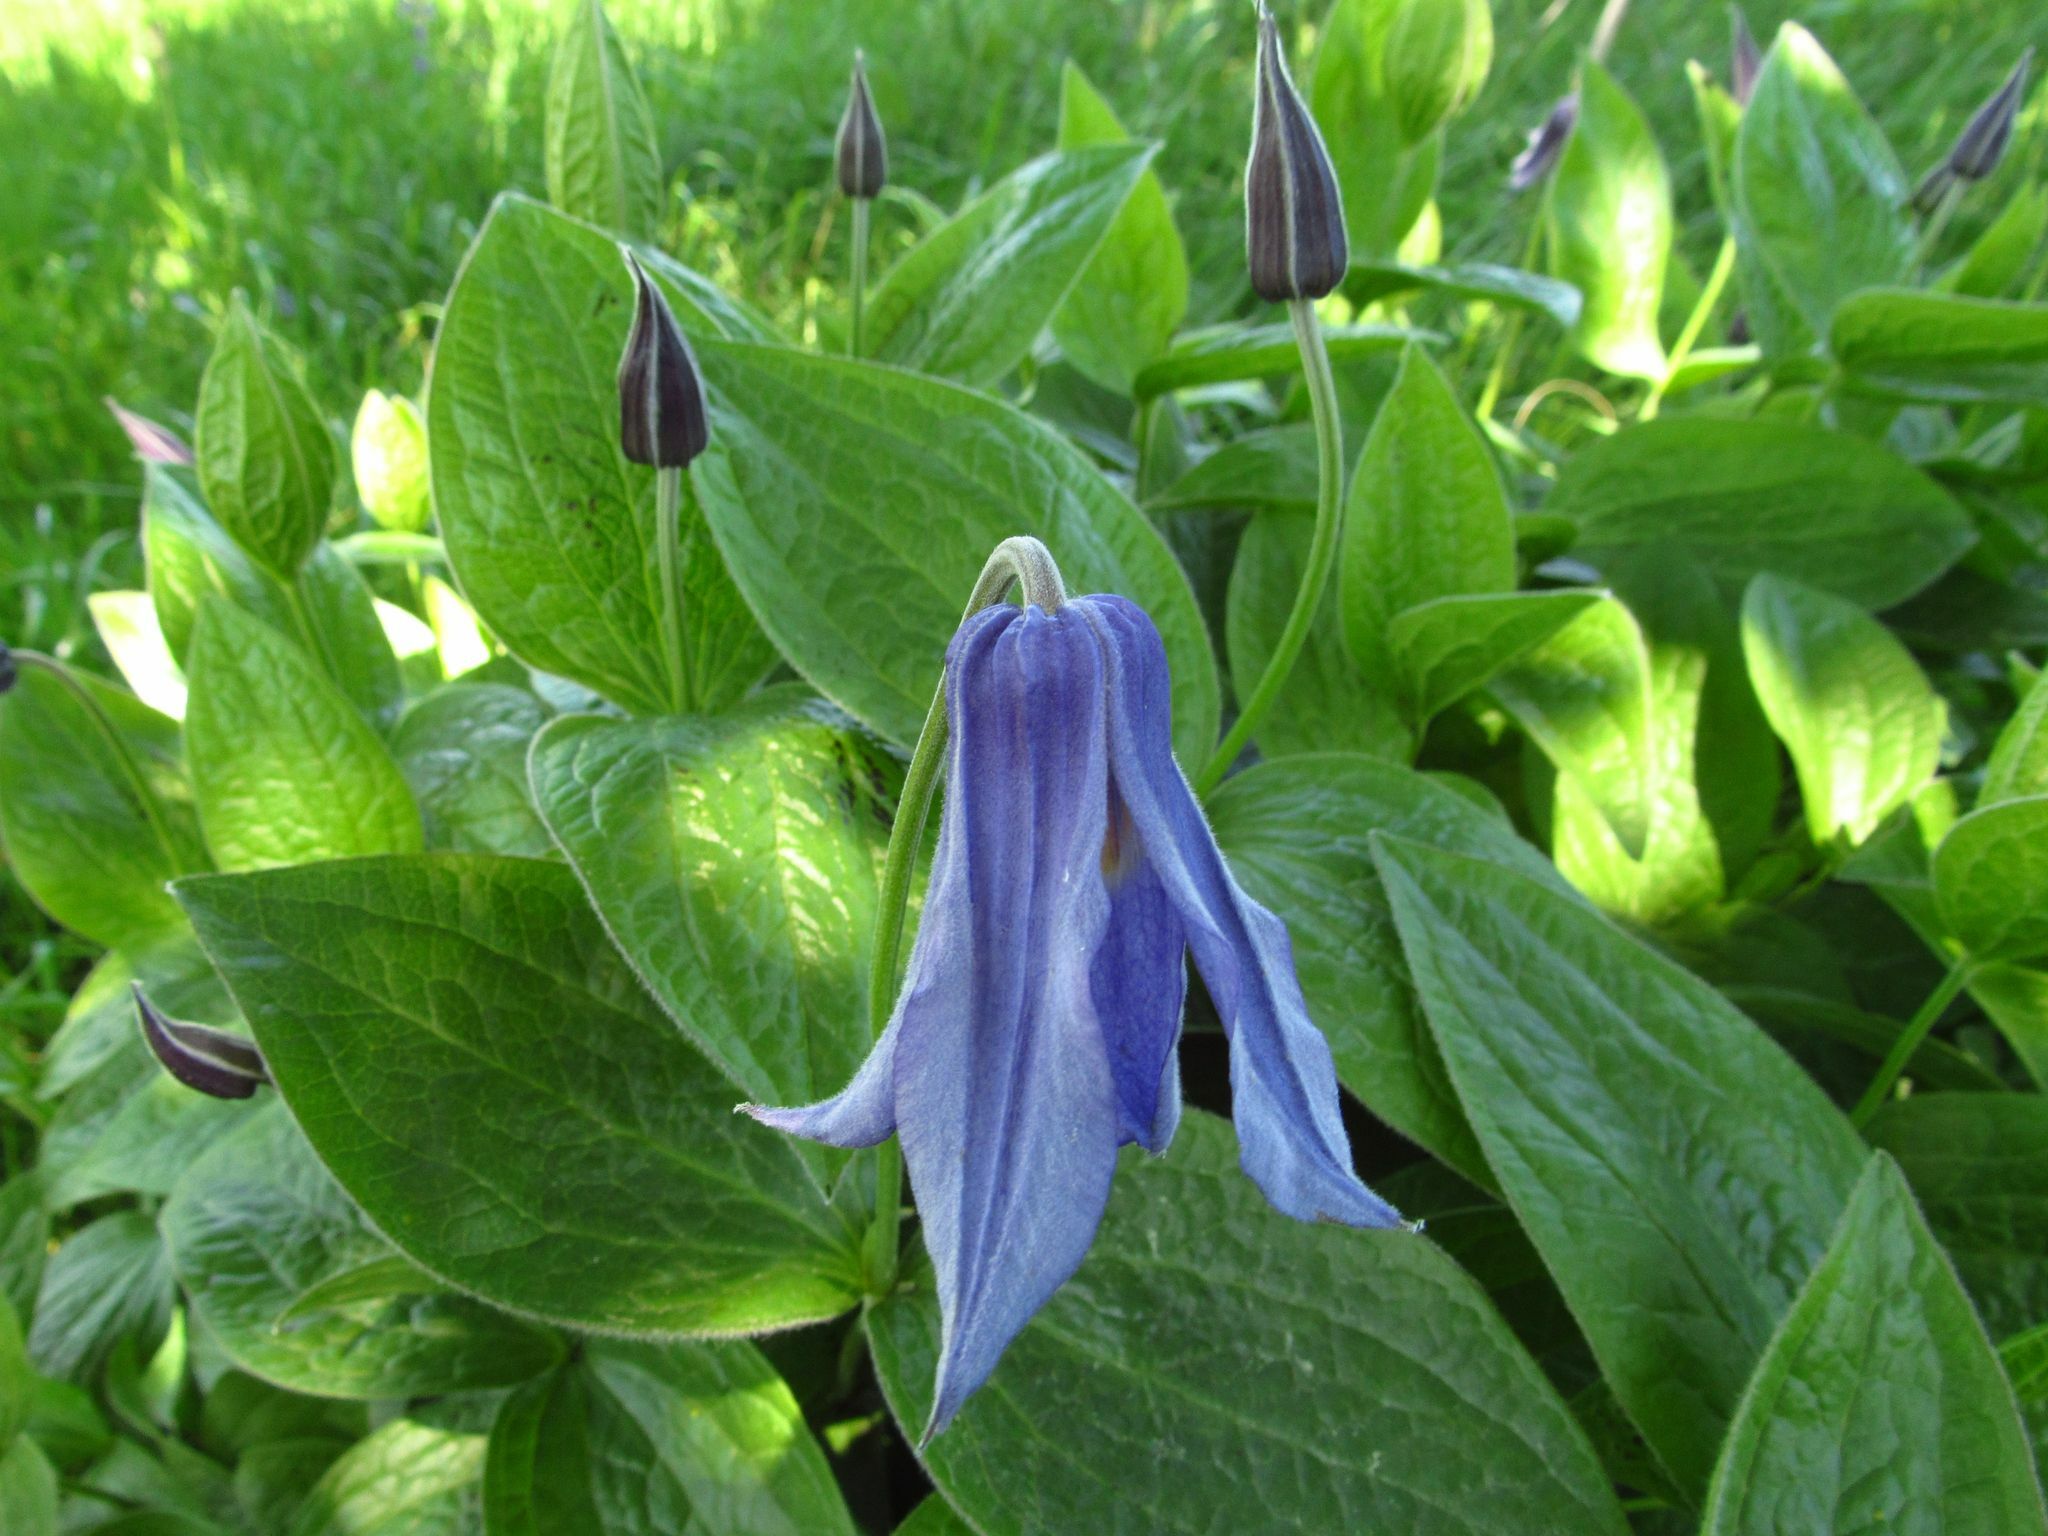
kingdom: Plantae
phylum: Tracheophyta
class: Magnoliopsida
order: Ranunculales
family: Ranunculaceae
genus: Clematis
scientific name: Clematis integrifolia
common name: Solitary clematis
